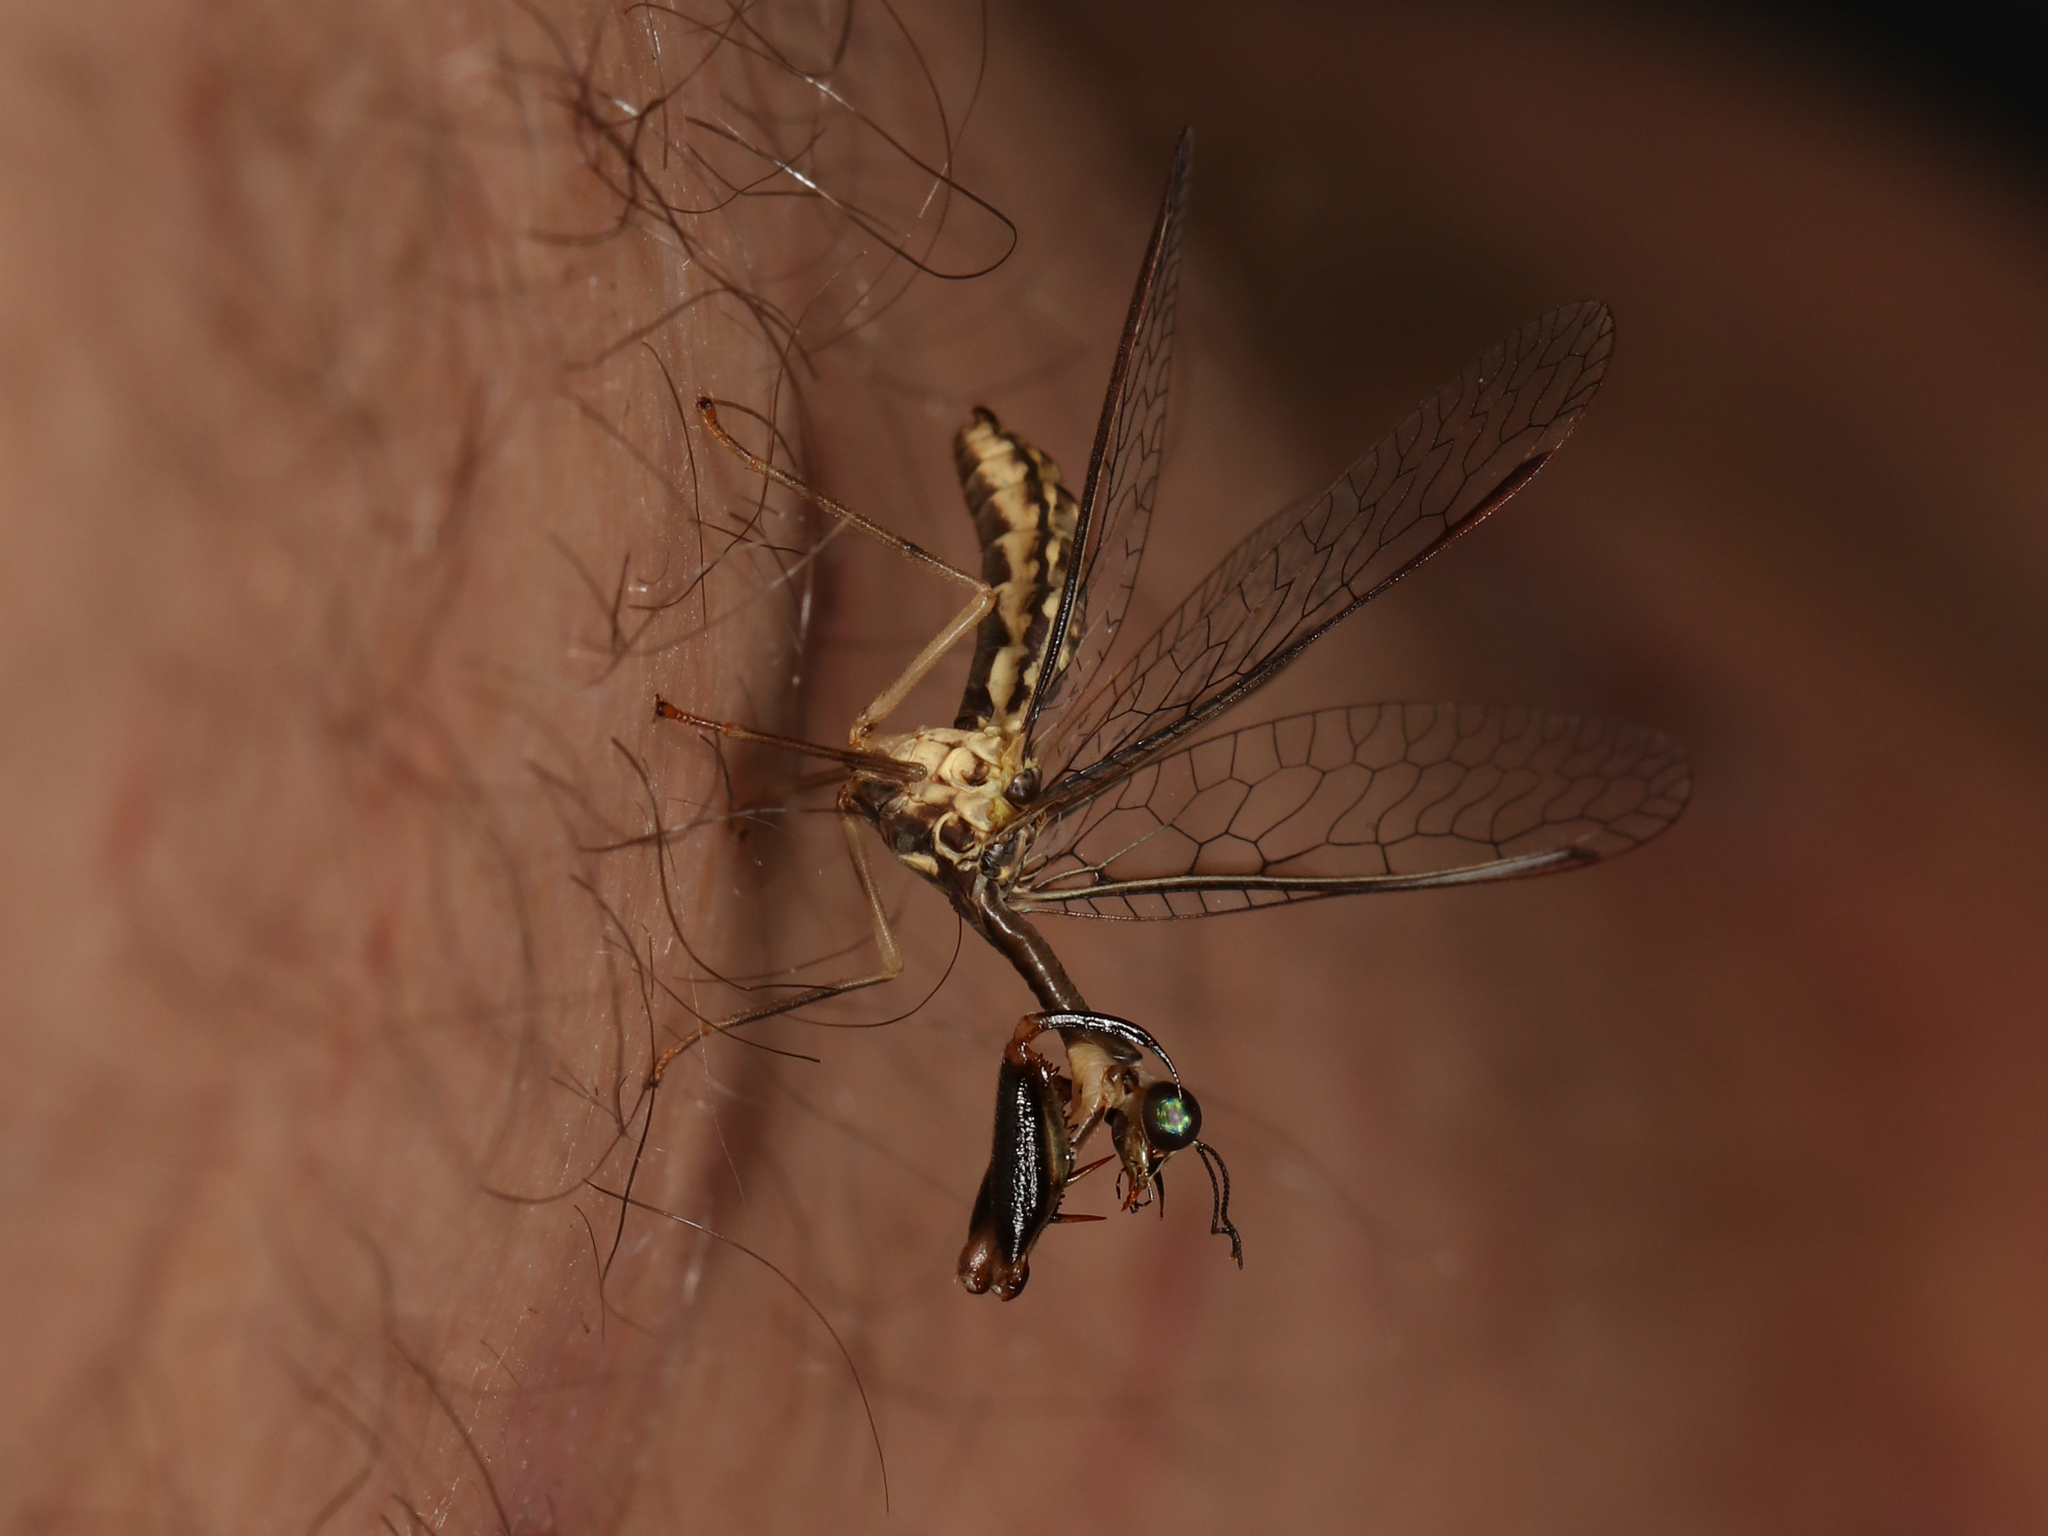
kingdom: Animalia
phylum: Arthropoda
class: Insecta
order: Neuroptera
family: Mantispidae
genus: Leptomantispa
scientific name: Leptomantispa pulchella
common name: Stevens's mantidfly
